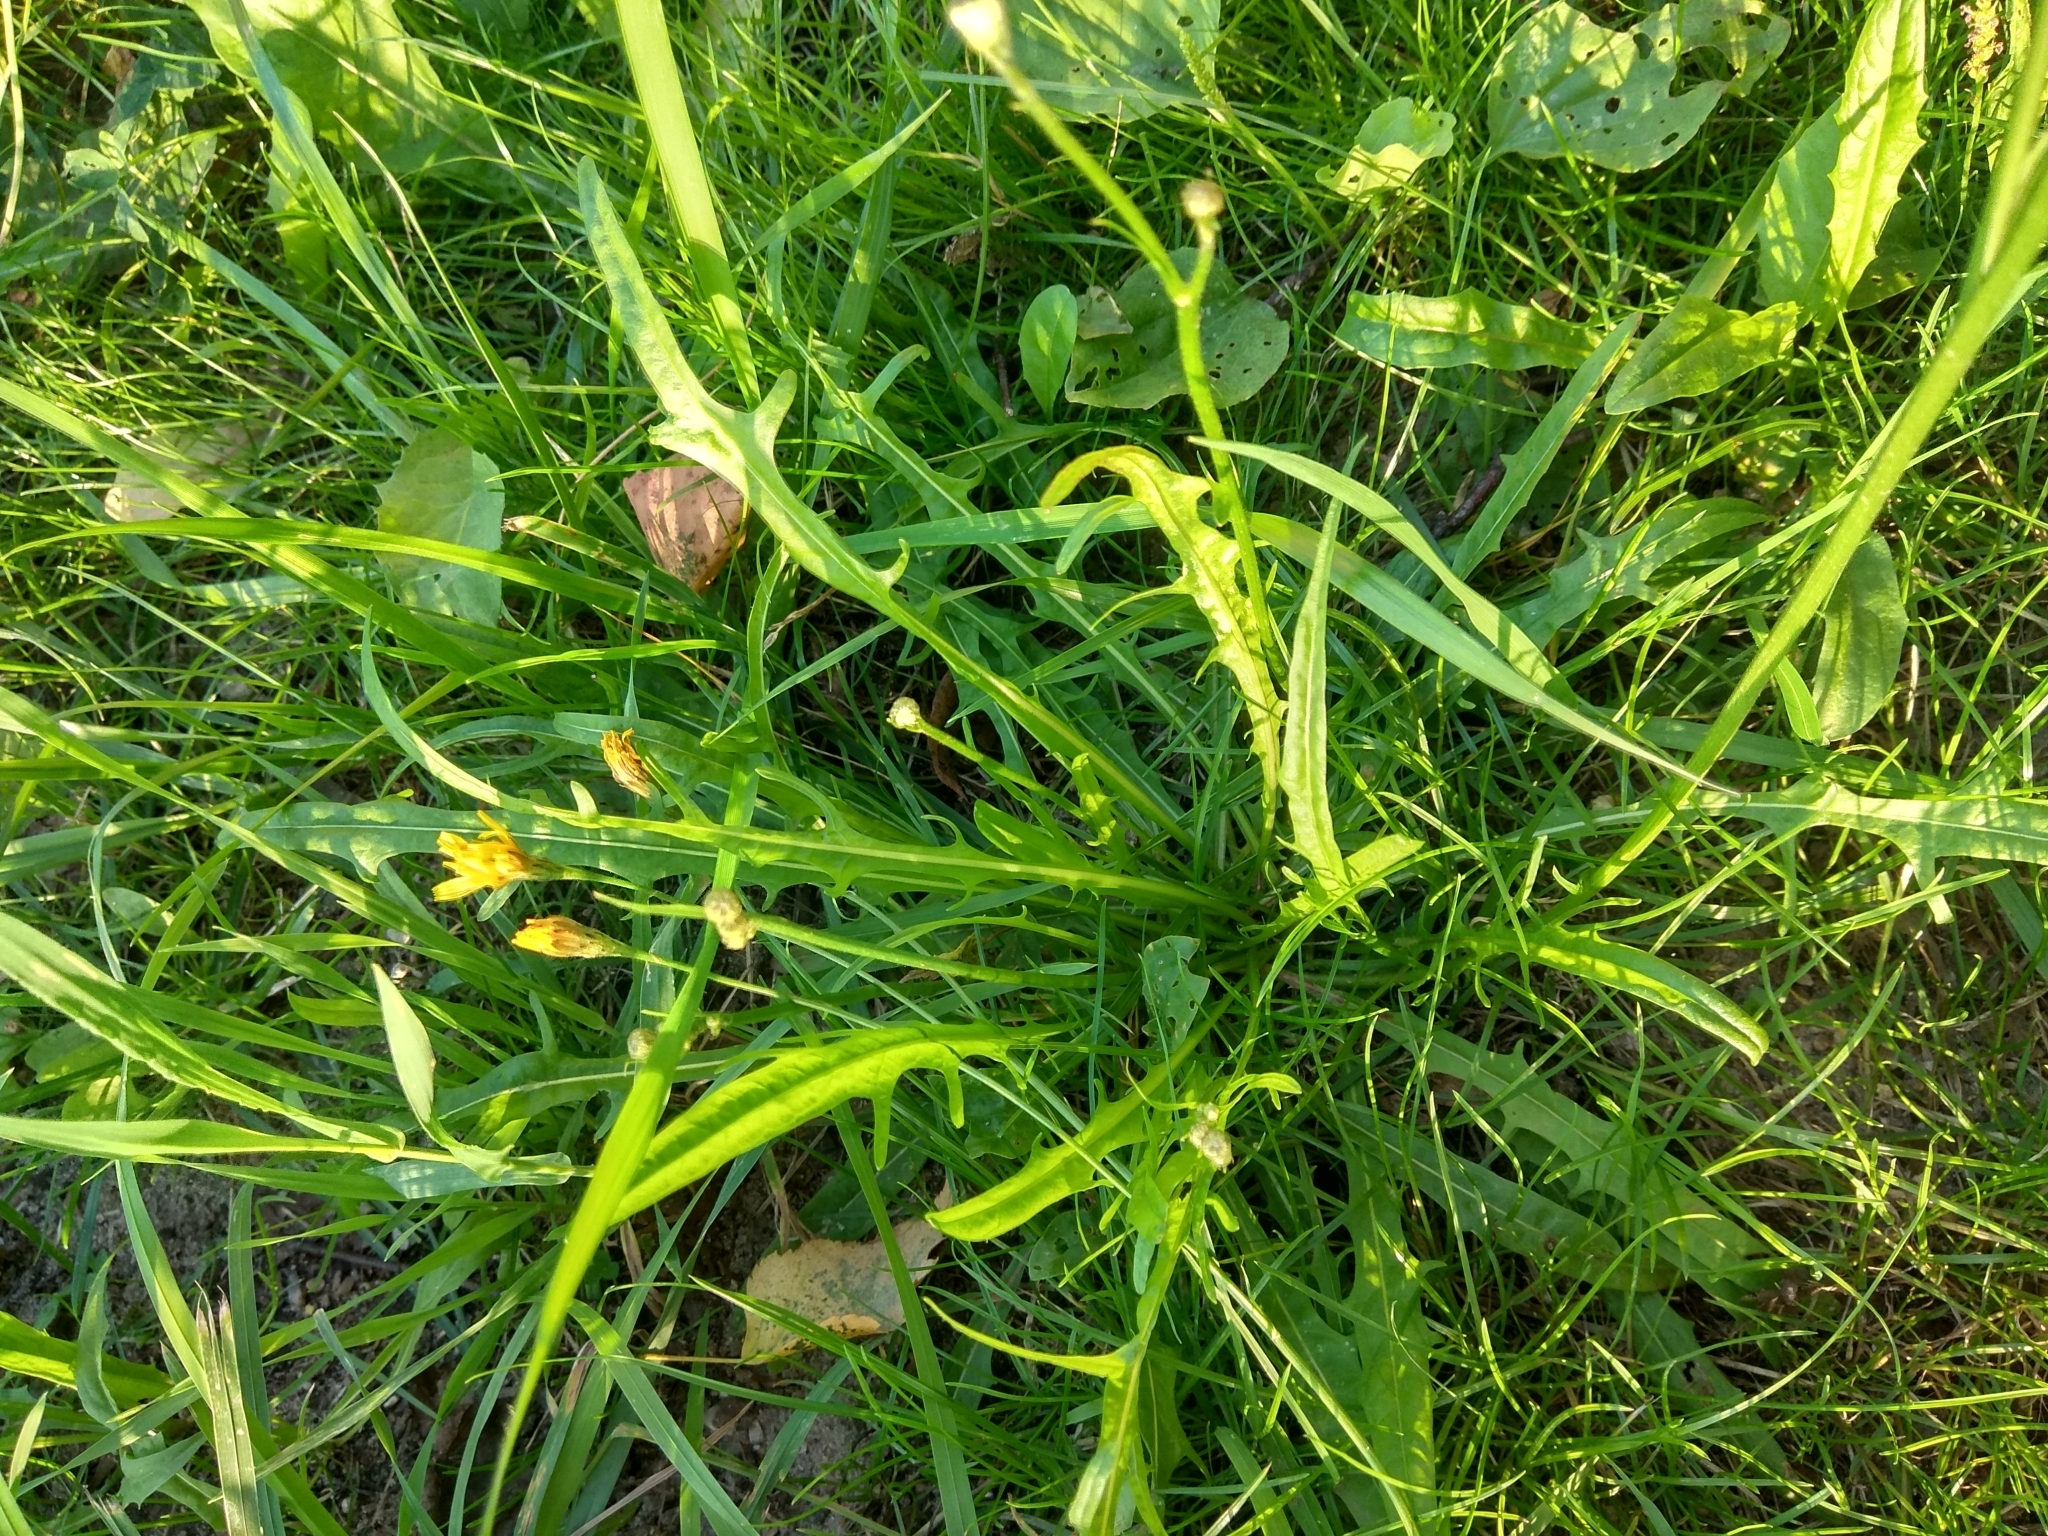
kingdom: Plantae
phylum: Tracheophyta
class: Magnoliopsida
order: Asterales
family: Asteraceae
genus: Scorzoneroides
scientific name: Scorzoneroides autumnalis
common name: Autumn hawkbit
